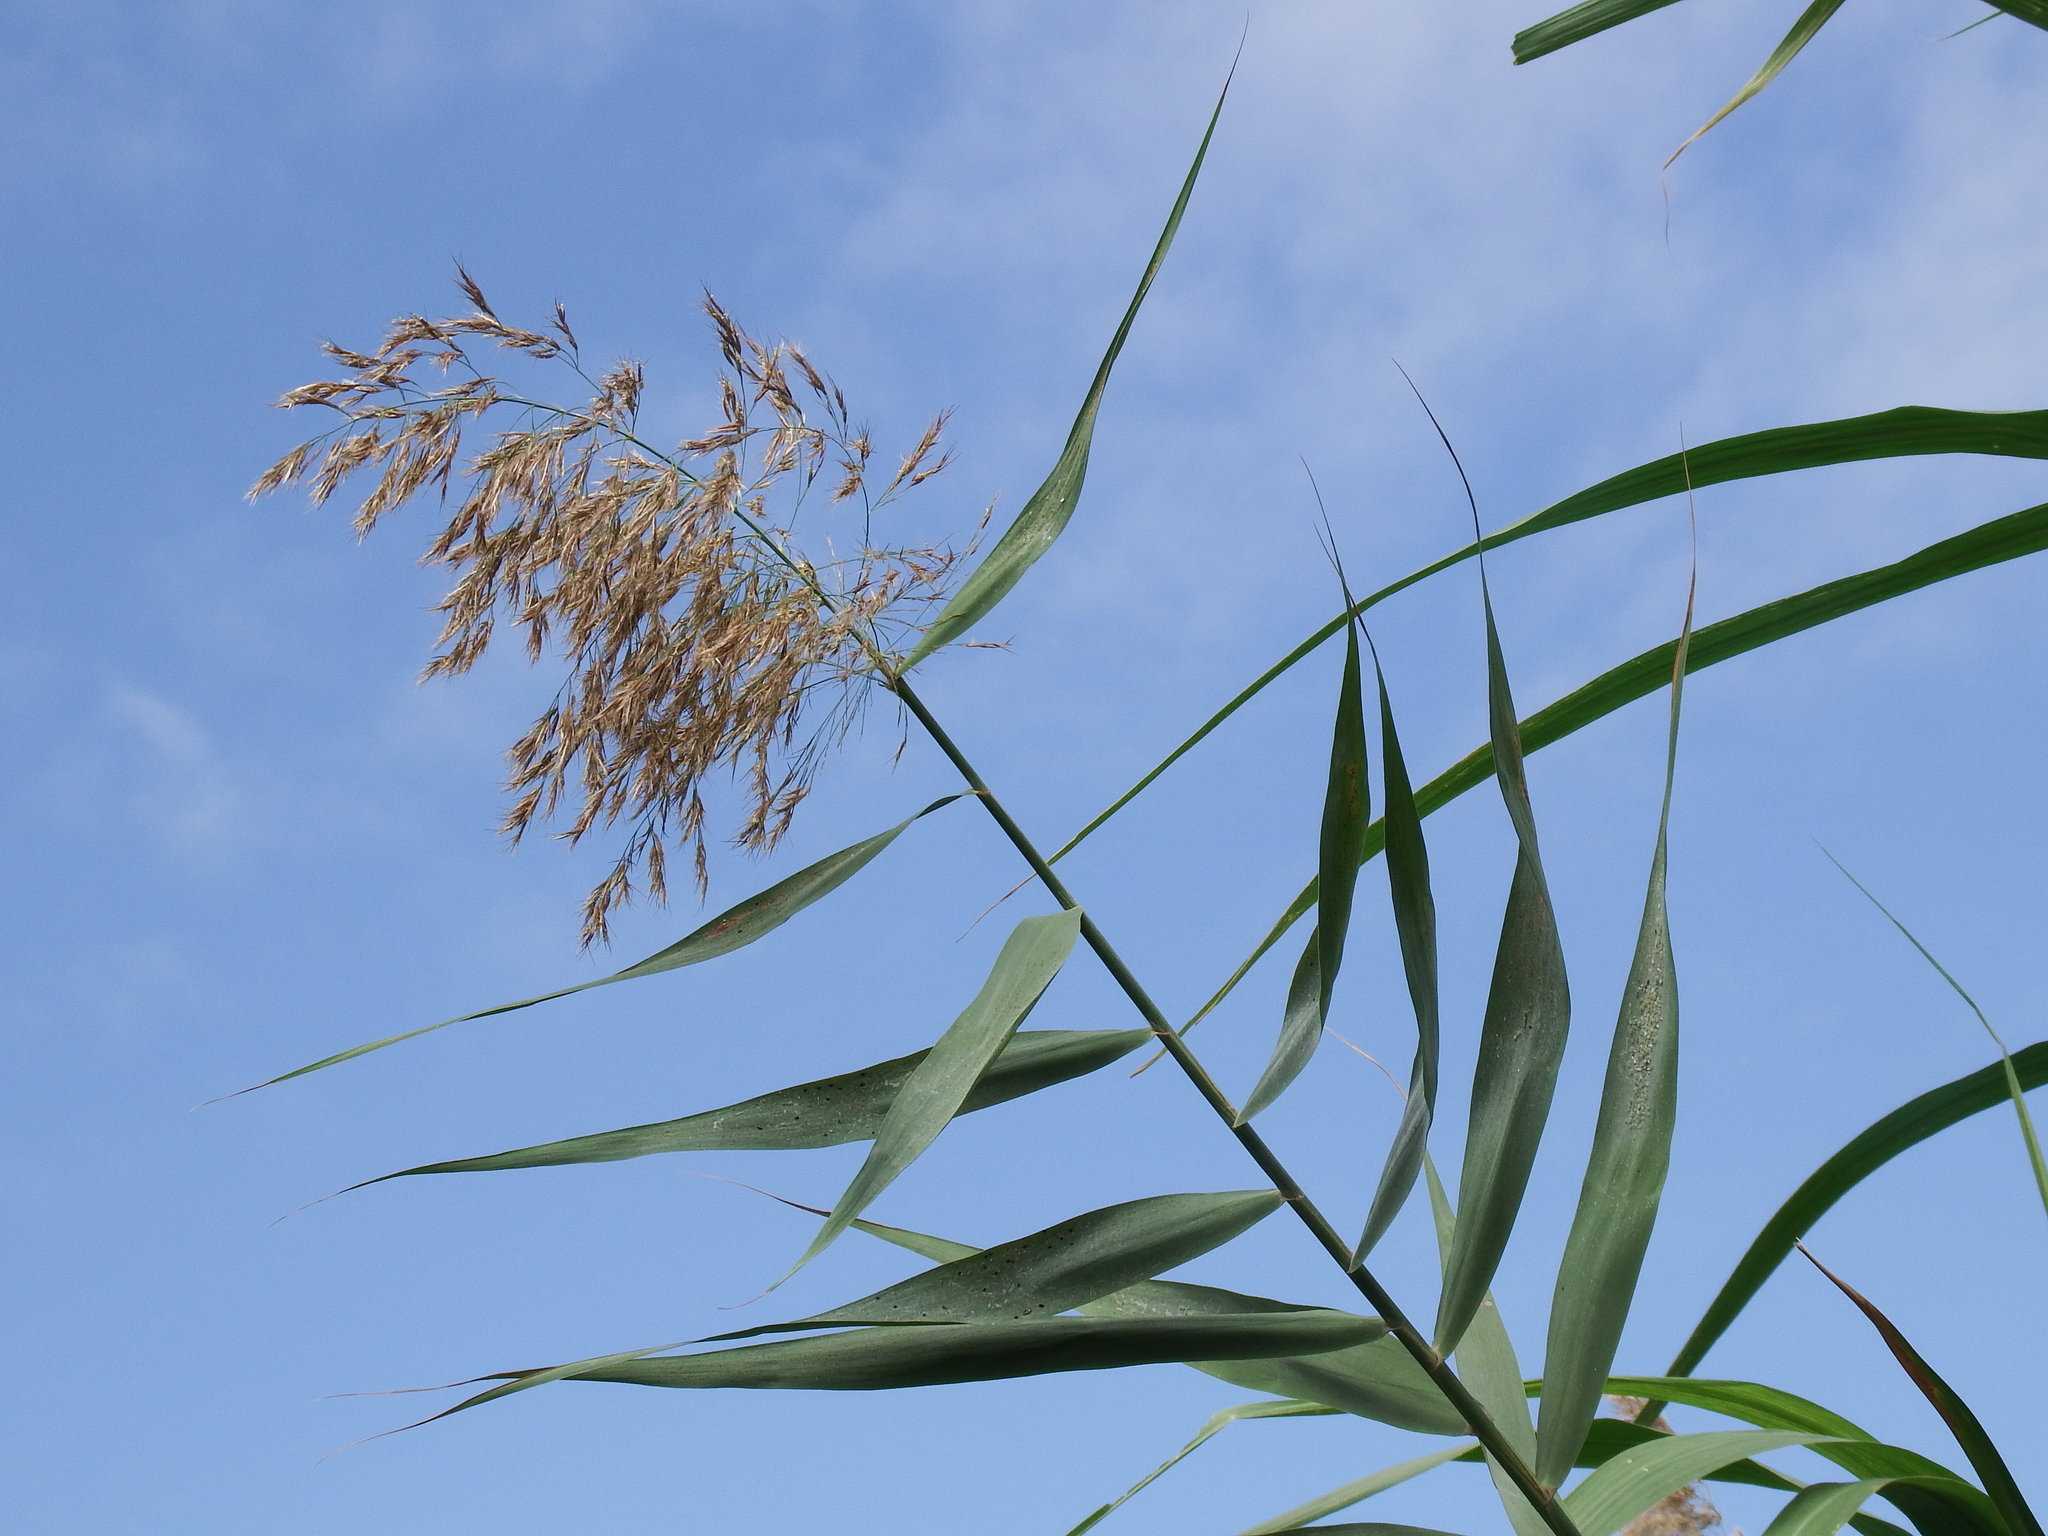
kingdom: Plantae
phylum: Tracheophyta
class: Liliopsida
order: Poales
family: Poaceae
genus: Phragmites
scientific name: Phragmites australis
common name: Common reed
